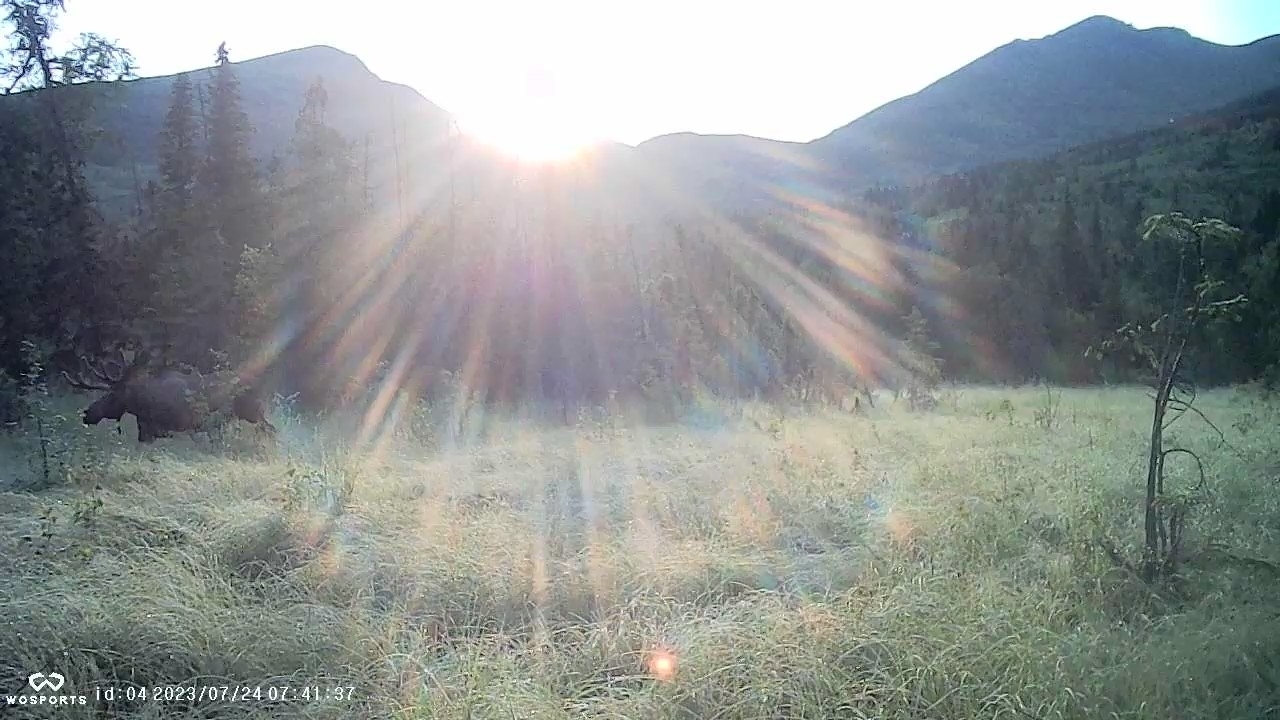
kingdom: Animalia
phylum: Chordata
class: Mammalia
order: Artiodactyla
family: Cervidae
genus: Alces
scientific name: Alces alces
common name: Moose
